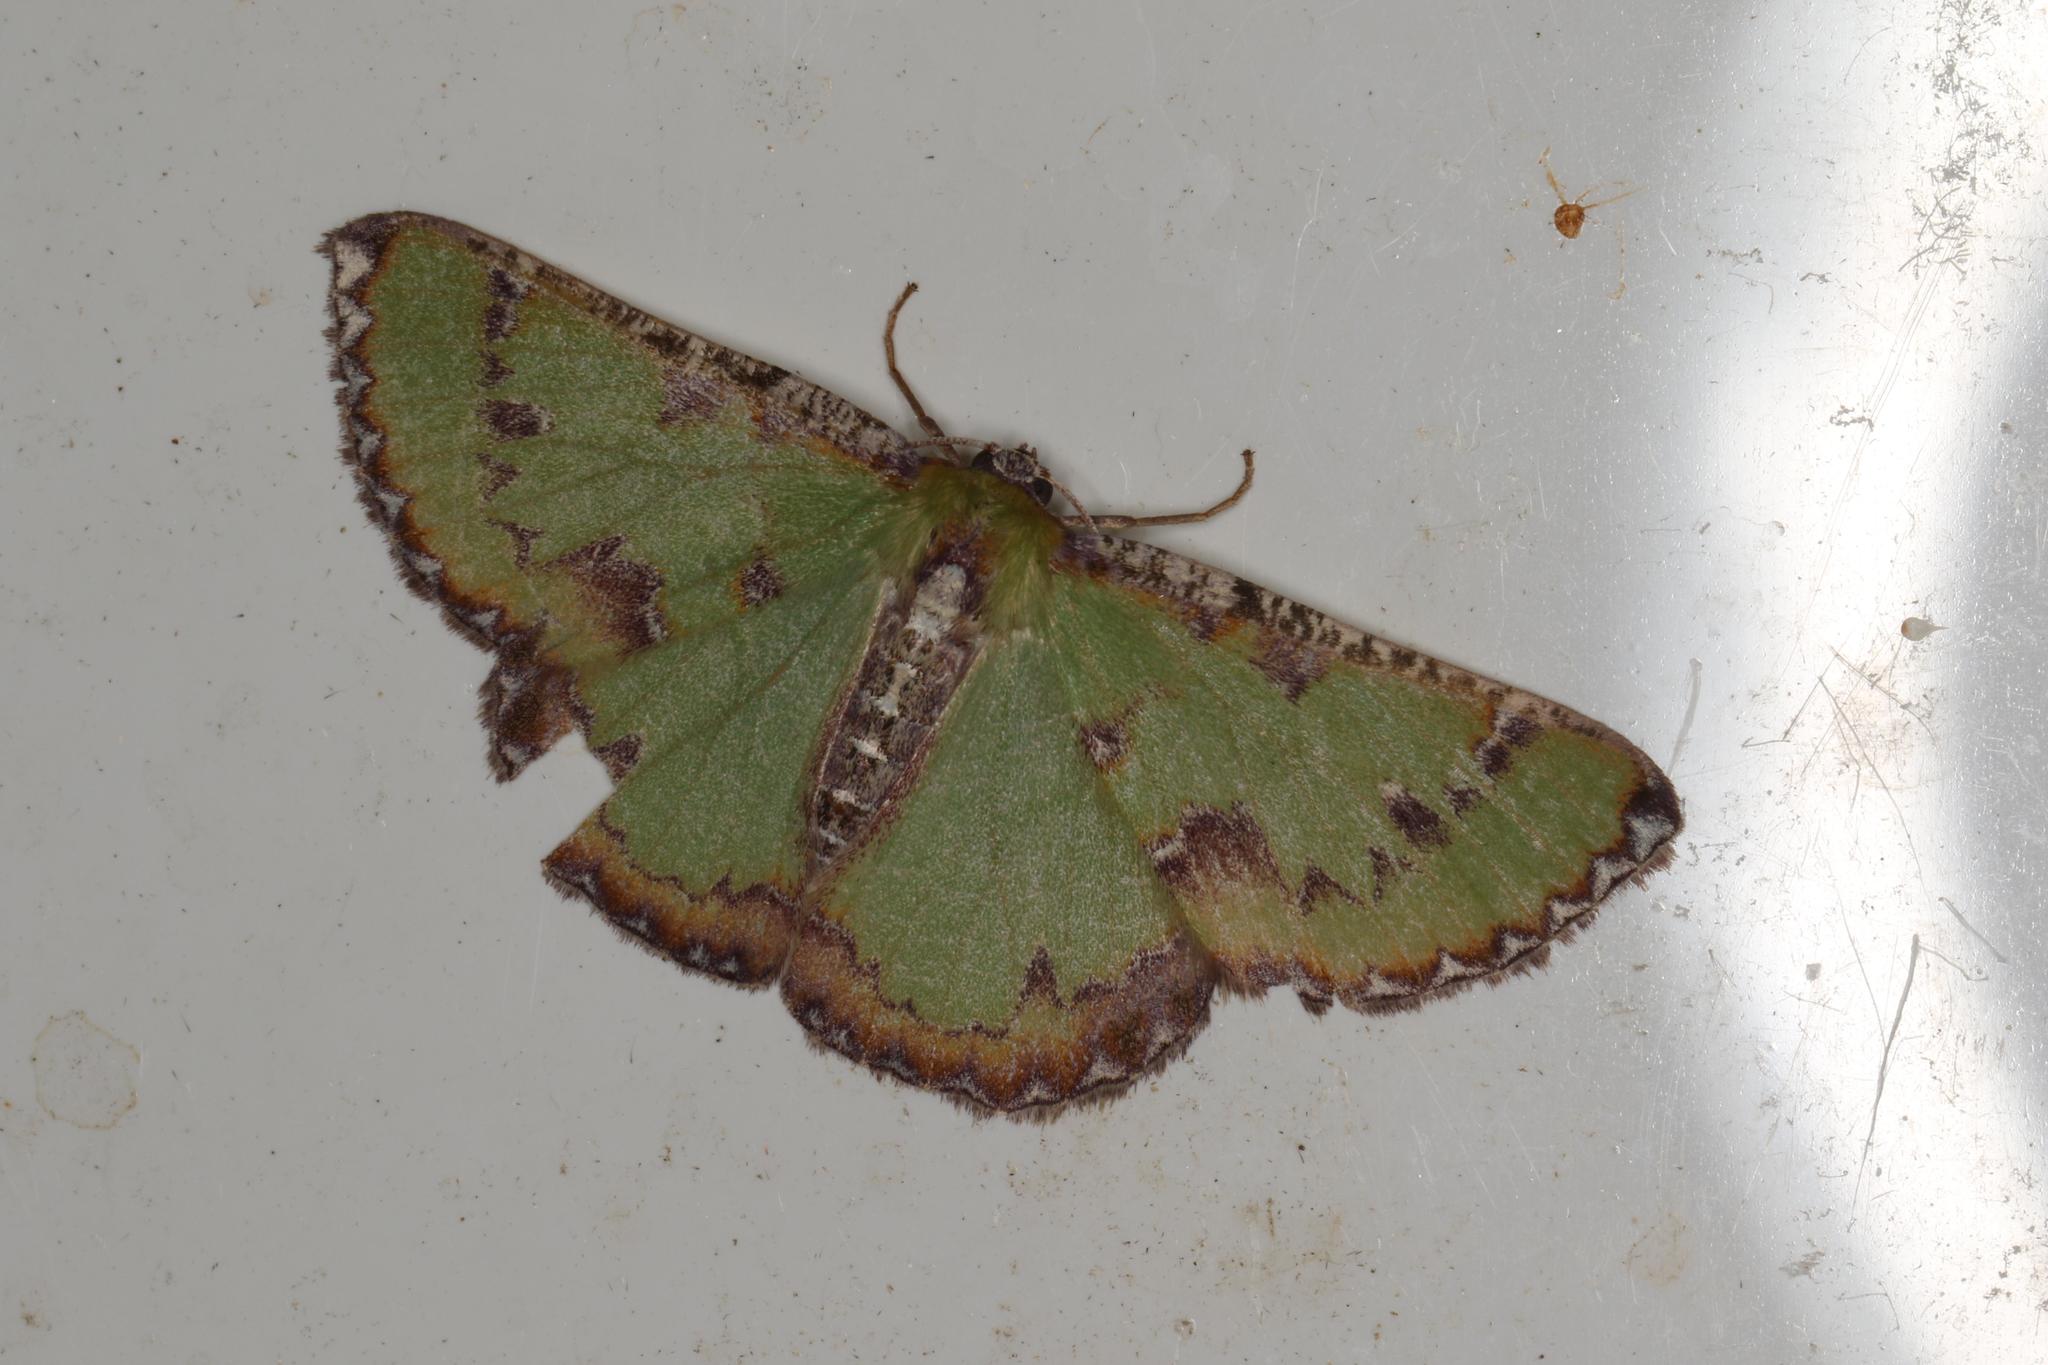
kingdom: Animalia
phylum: Arthropoda
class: Insecta
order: Lepidoptera
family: Geometridae
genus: Eucyclodes
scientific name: Eucyclodes buprestaria
